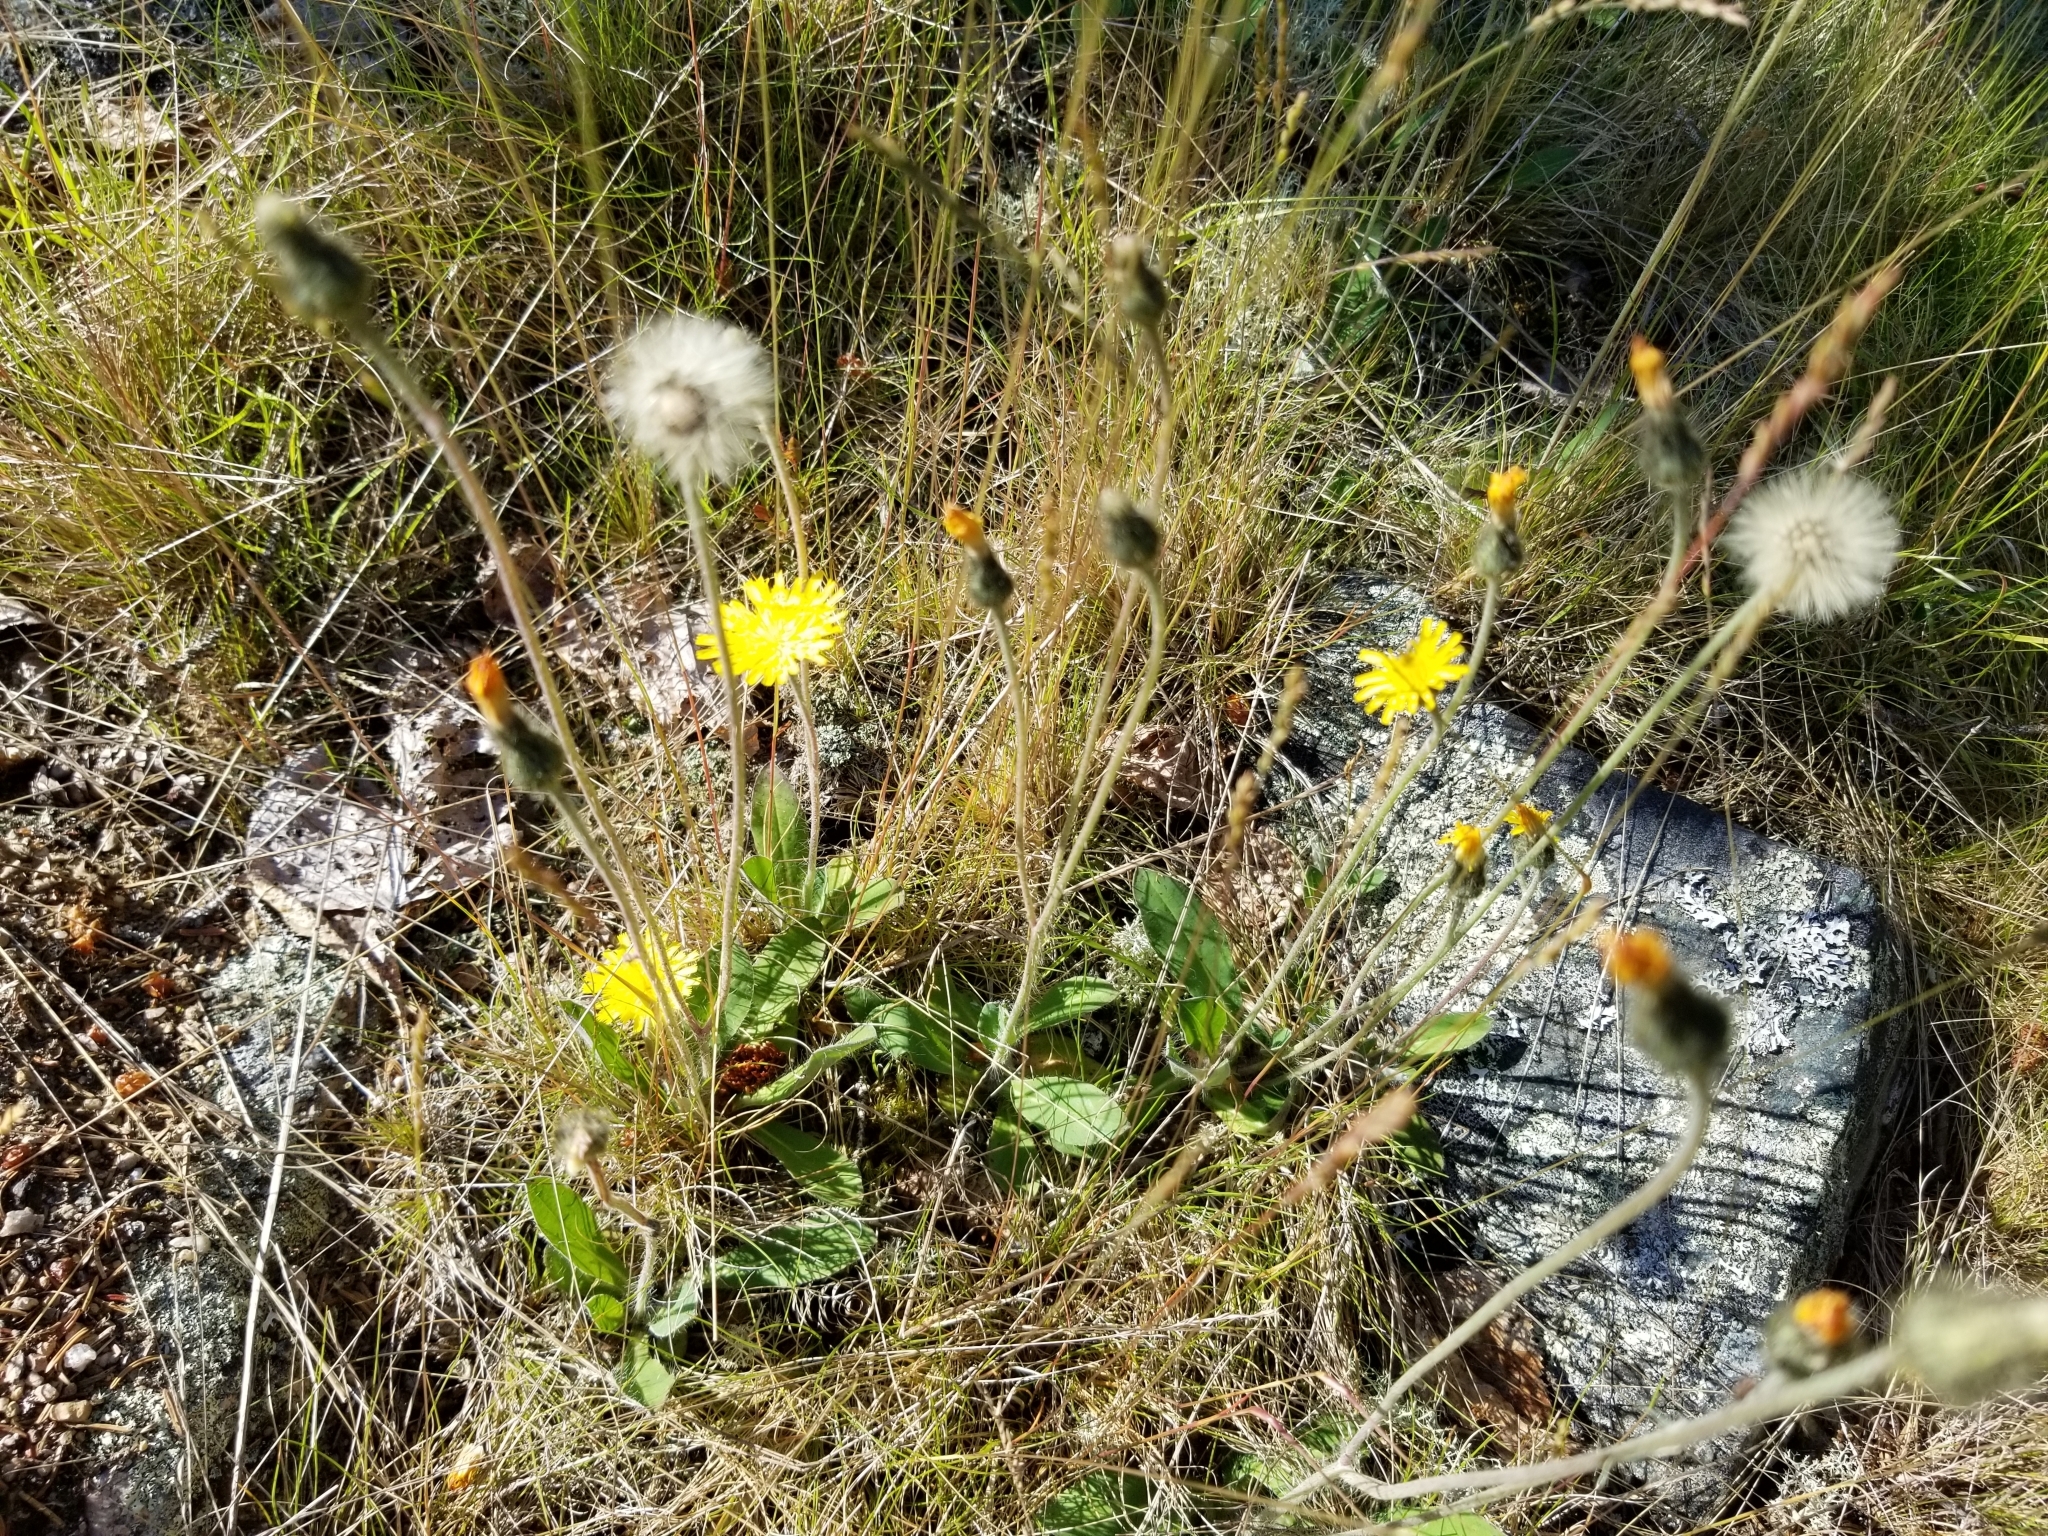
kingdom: Plantae
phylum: Tracheophyta
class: Magnoliopsida
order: Asterales
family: Asteraceae
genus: Pilosella
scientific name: Pilosella officinarum
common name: Mouse-ear hawkweed
